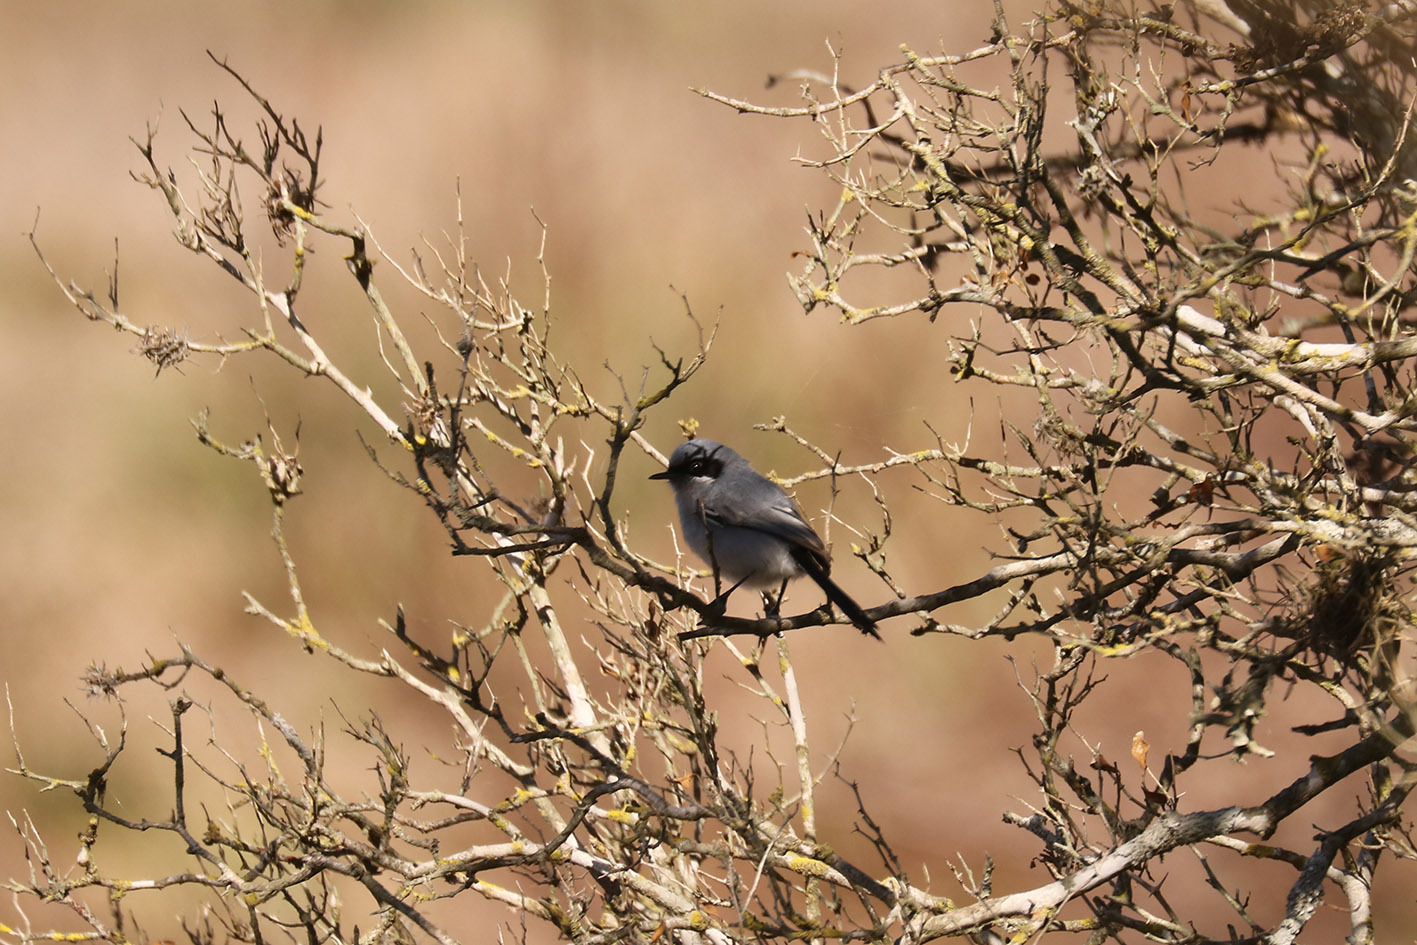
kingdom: Animalia
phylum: Chordata
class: Aves
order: Passeriformes
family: Polioptilidae
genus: Polioptila
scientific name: Polioptila dumicola
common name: Masked gnatcatcher
